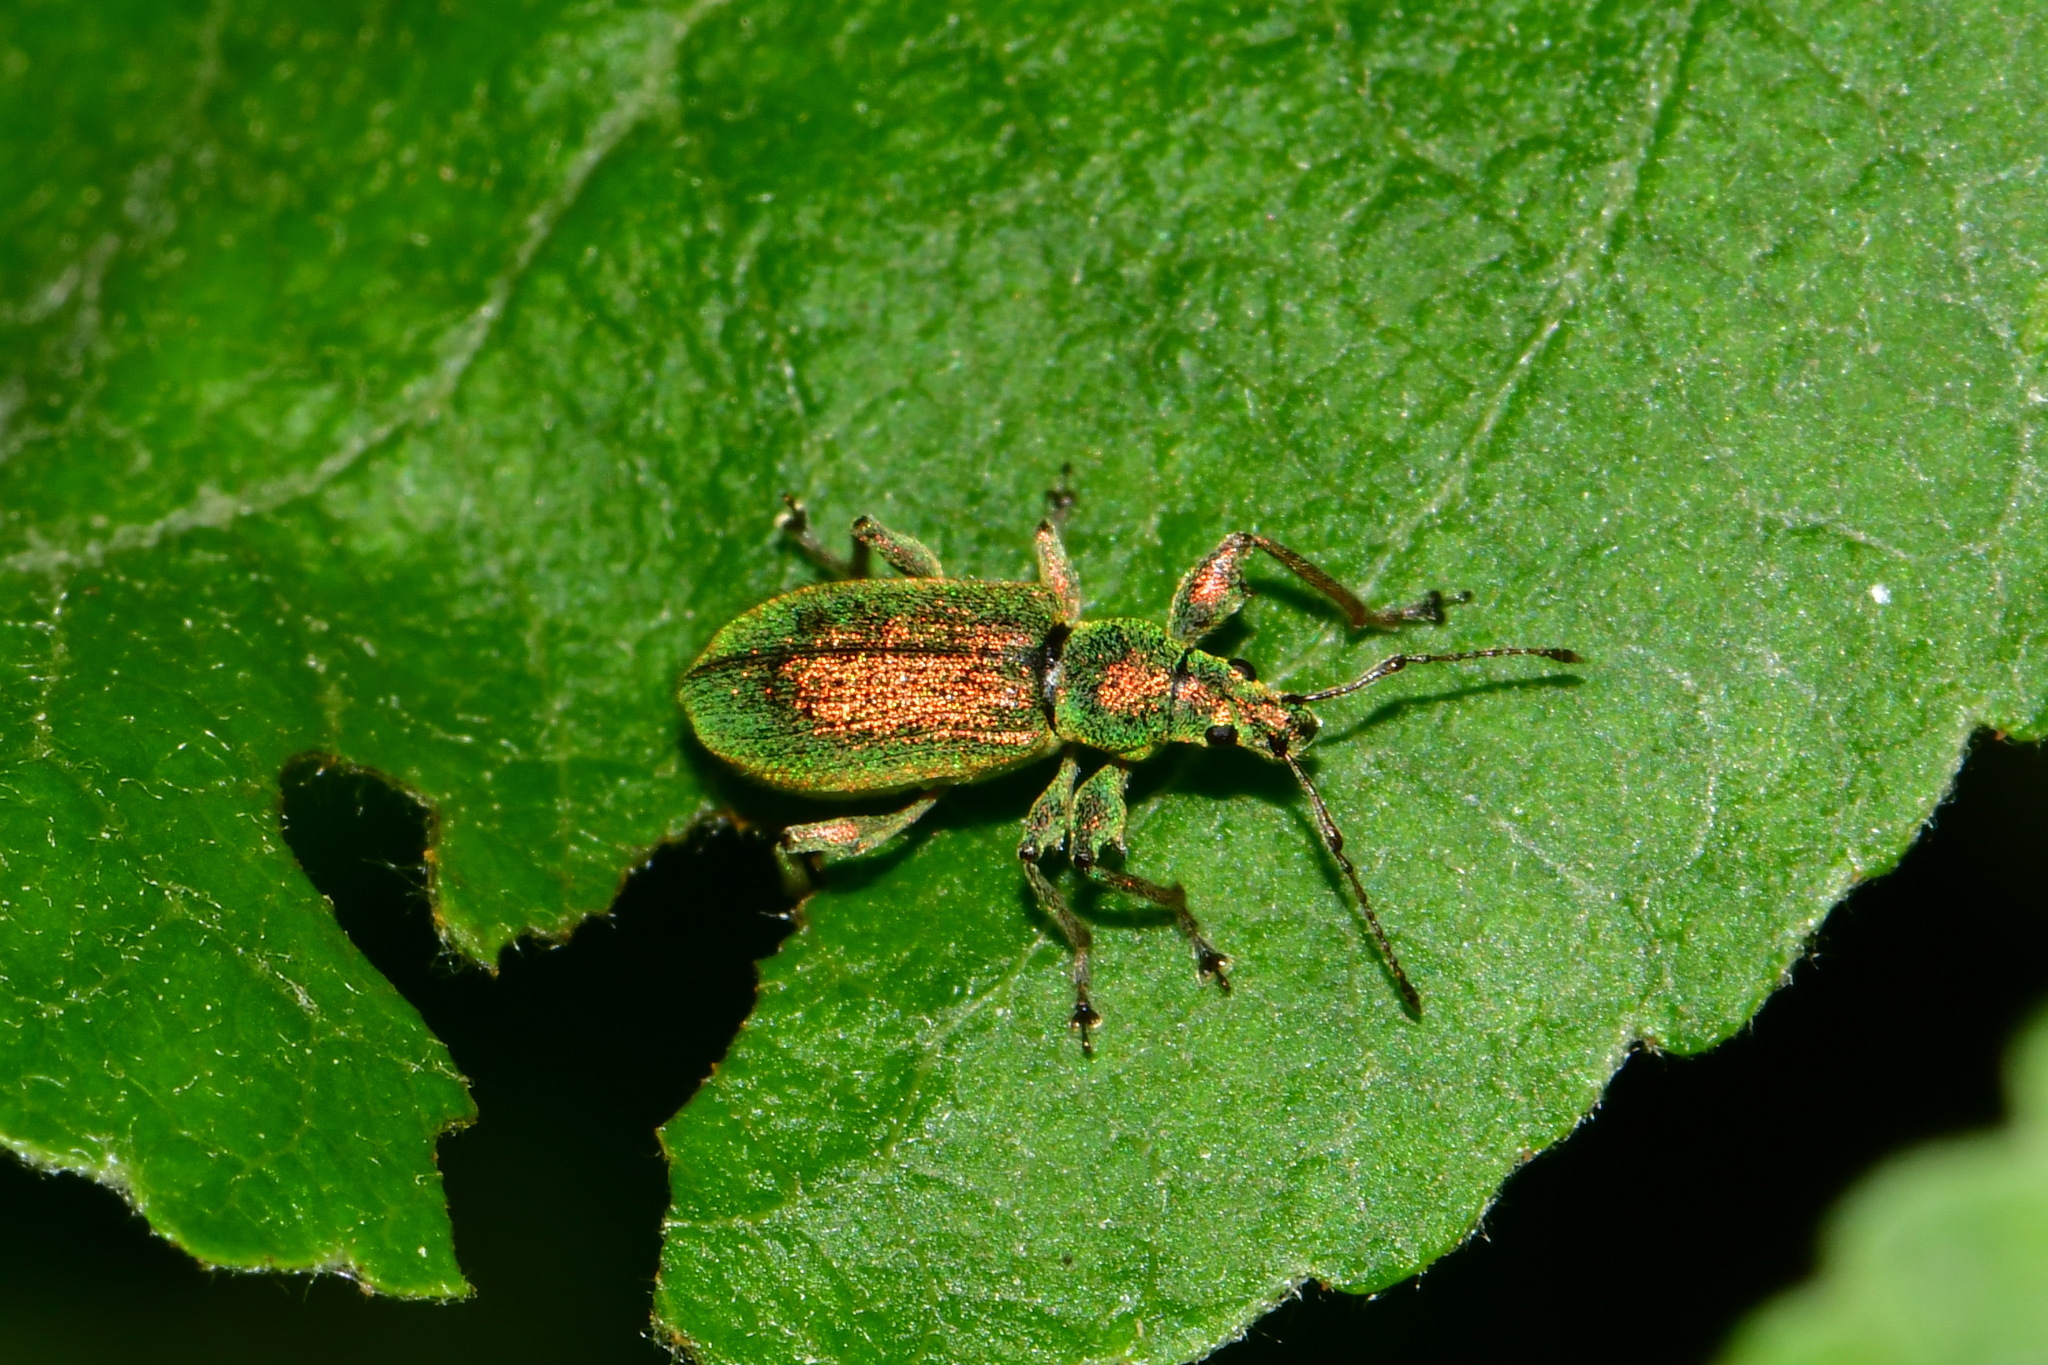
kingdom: Animalia
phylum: Arthropoda
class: Insecta
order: Coleoptera
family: Curculionidae
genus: Phyllobius
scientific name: Phyllobius arborator
